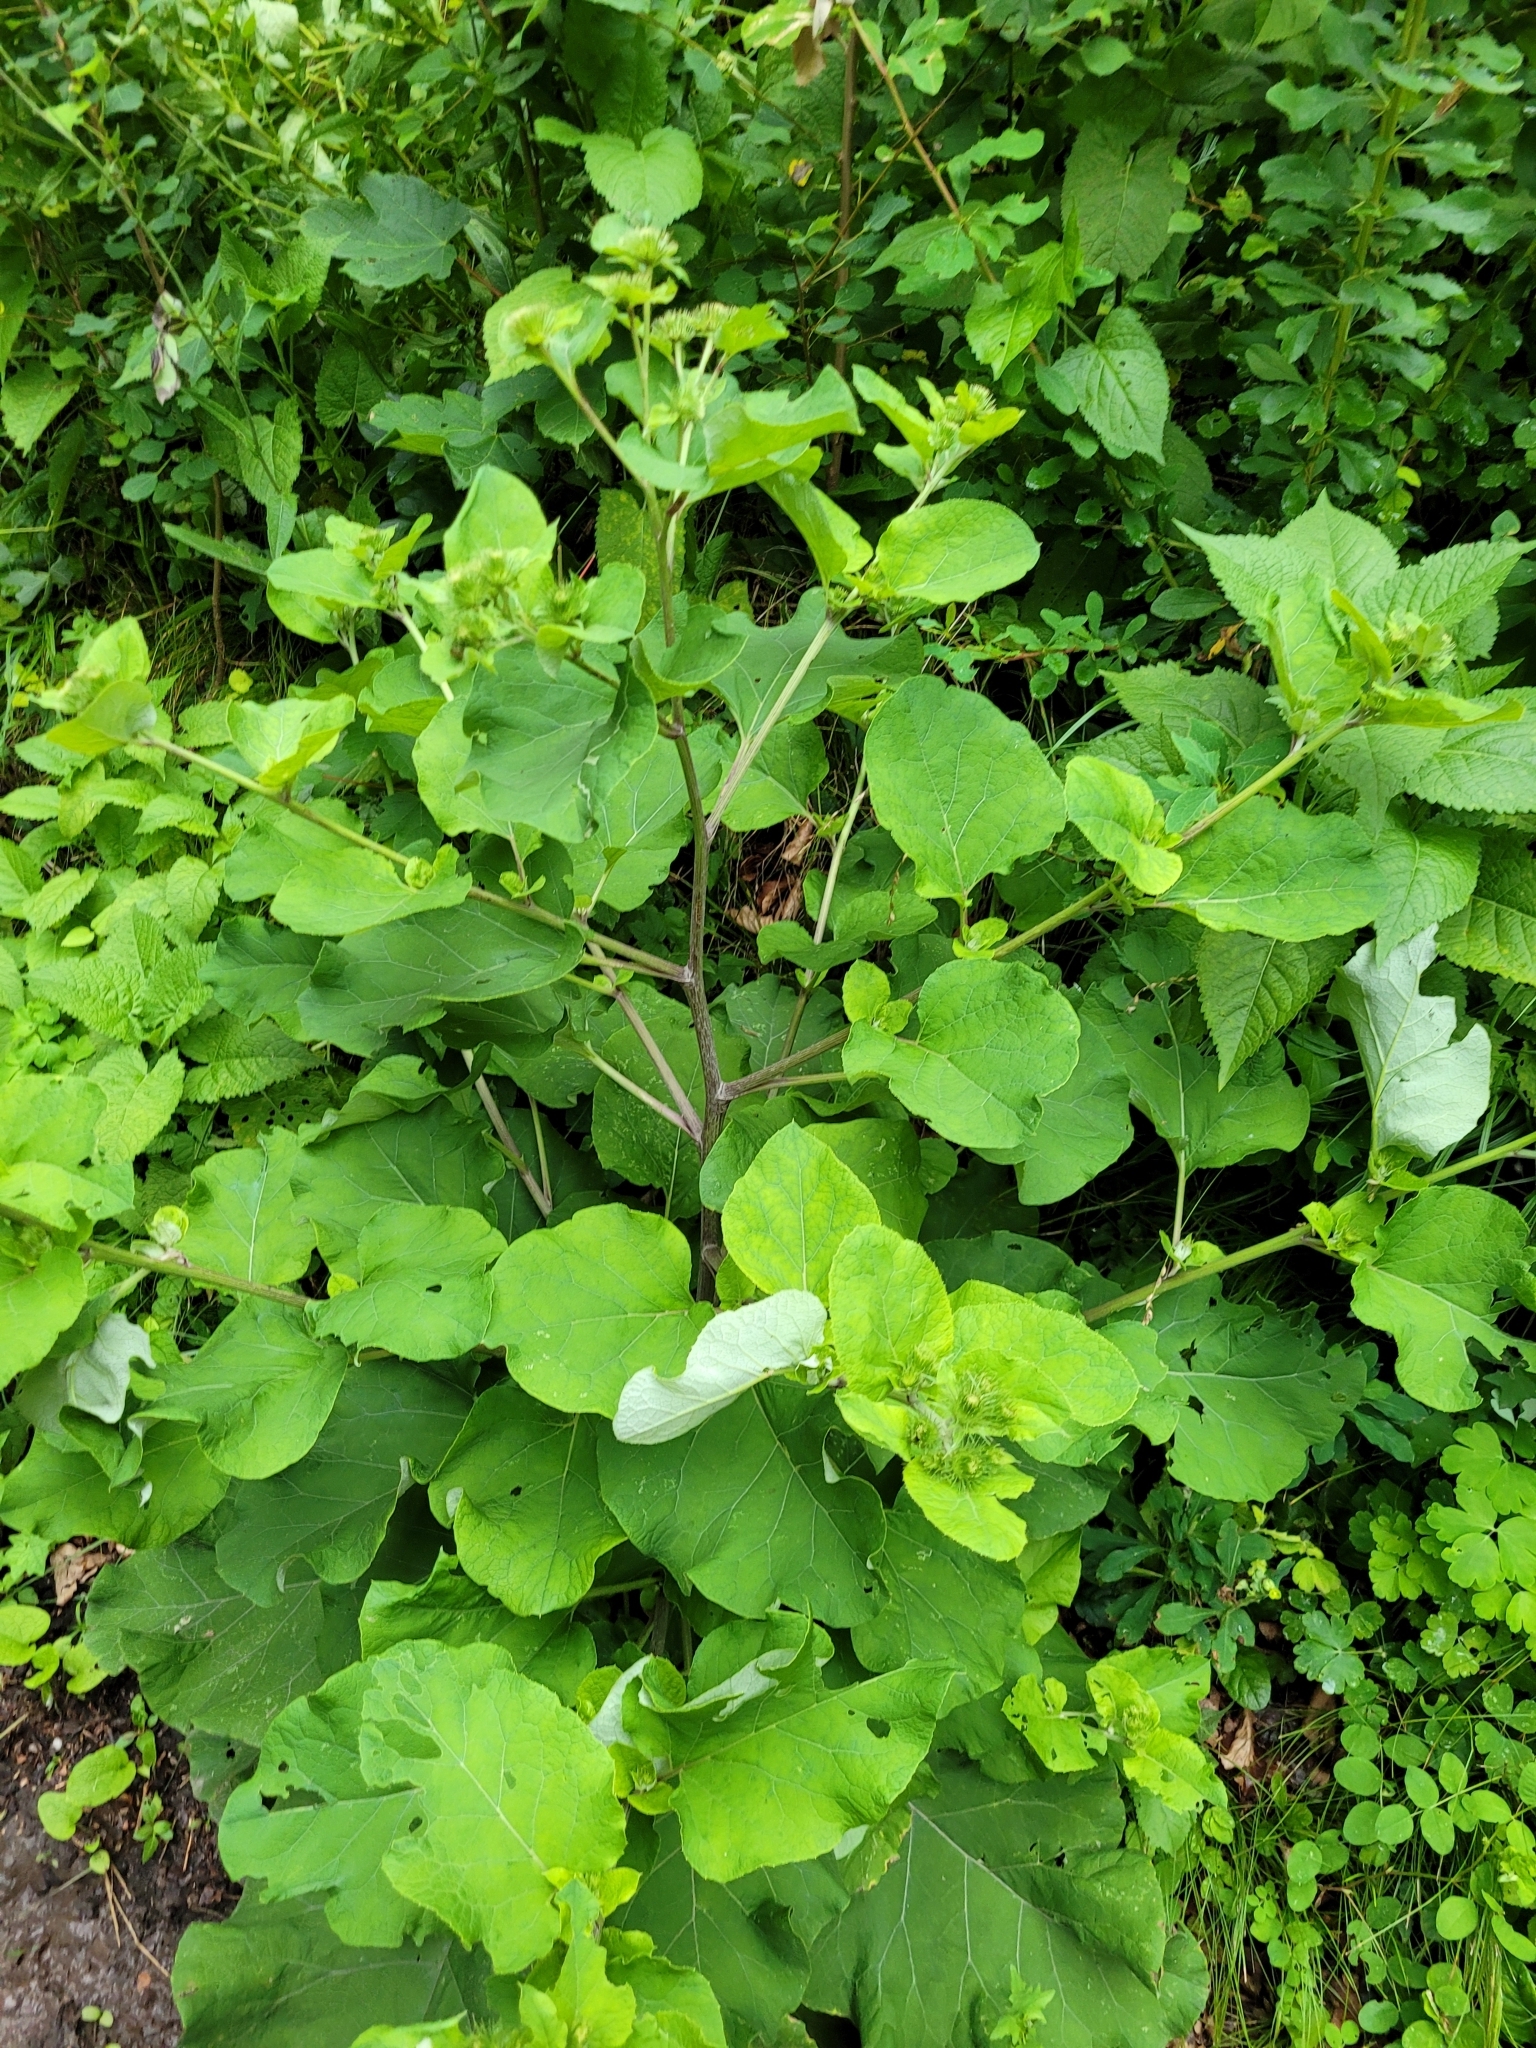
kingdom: Plantae
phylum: Tracheophyta
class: Magnoliopsida
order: Asterales
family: Asteraceae
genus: Arctium
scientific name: Arctium lappa
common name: Greater burdock
